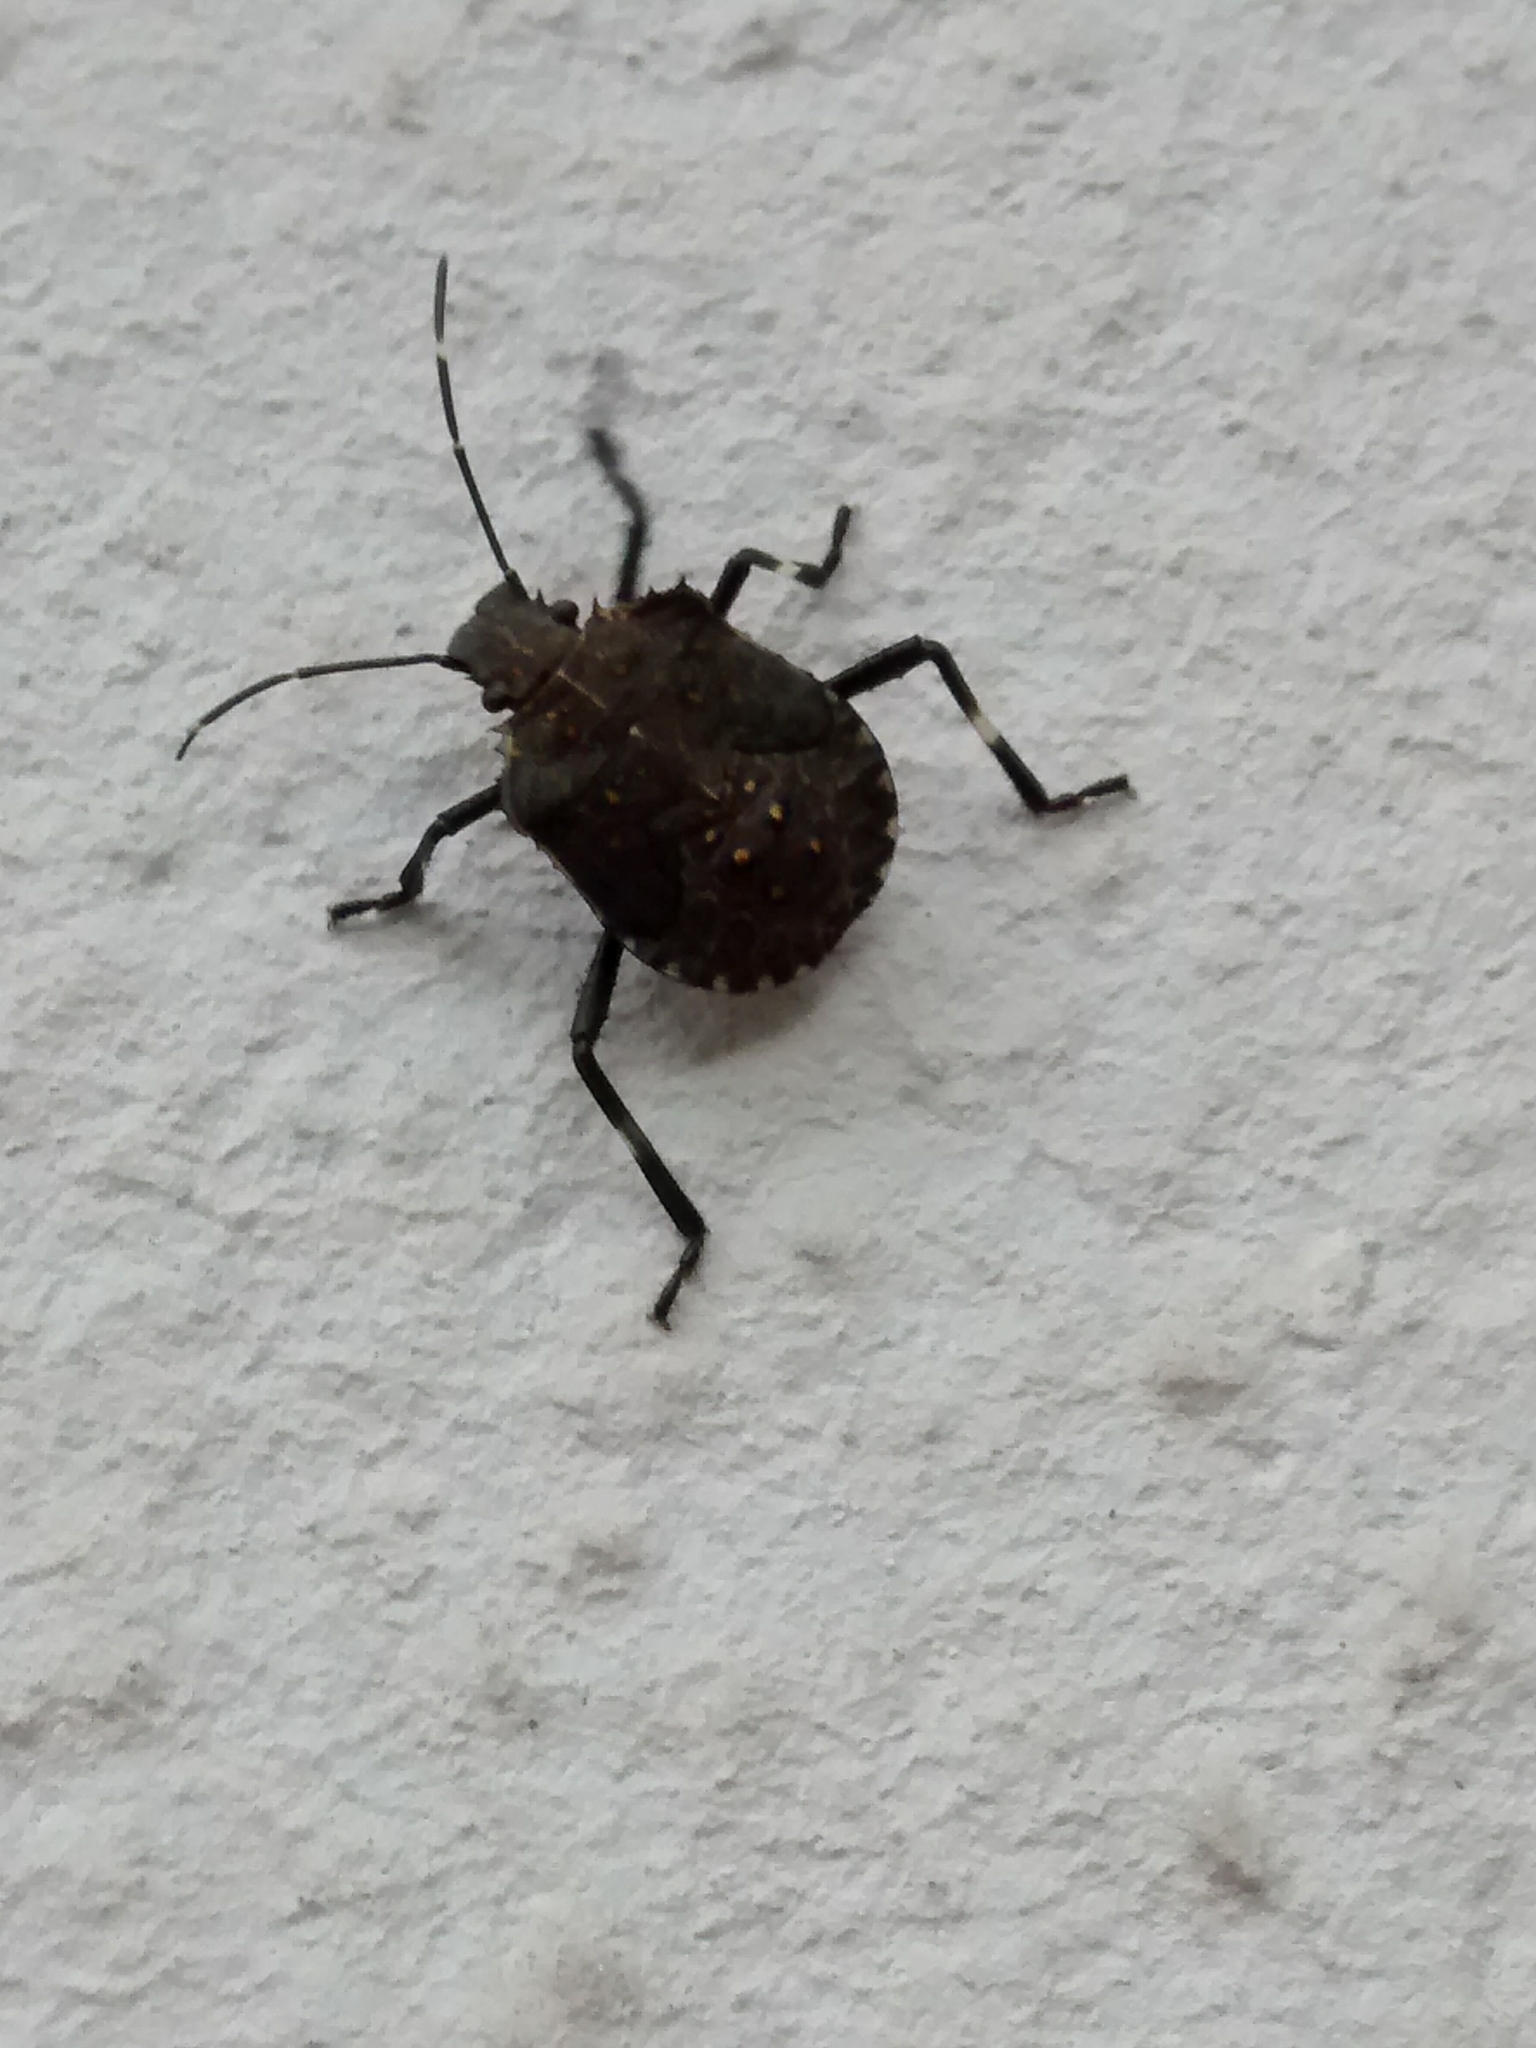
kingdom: Animalia
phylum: Arthropoda
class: Insecta
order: Hemiptera
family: Pentatomidae
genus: Halyomorpha
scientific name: Halyomorpha halys
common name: Brown marmorated stink bug
